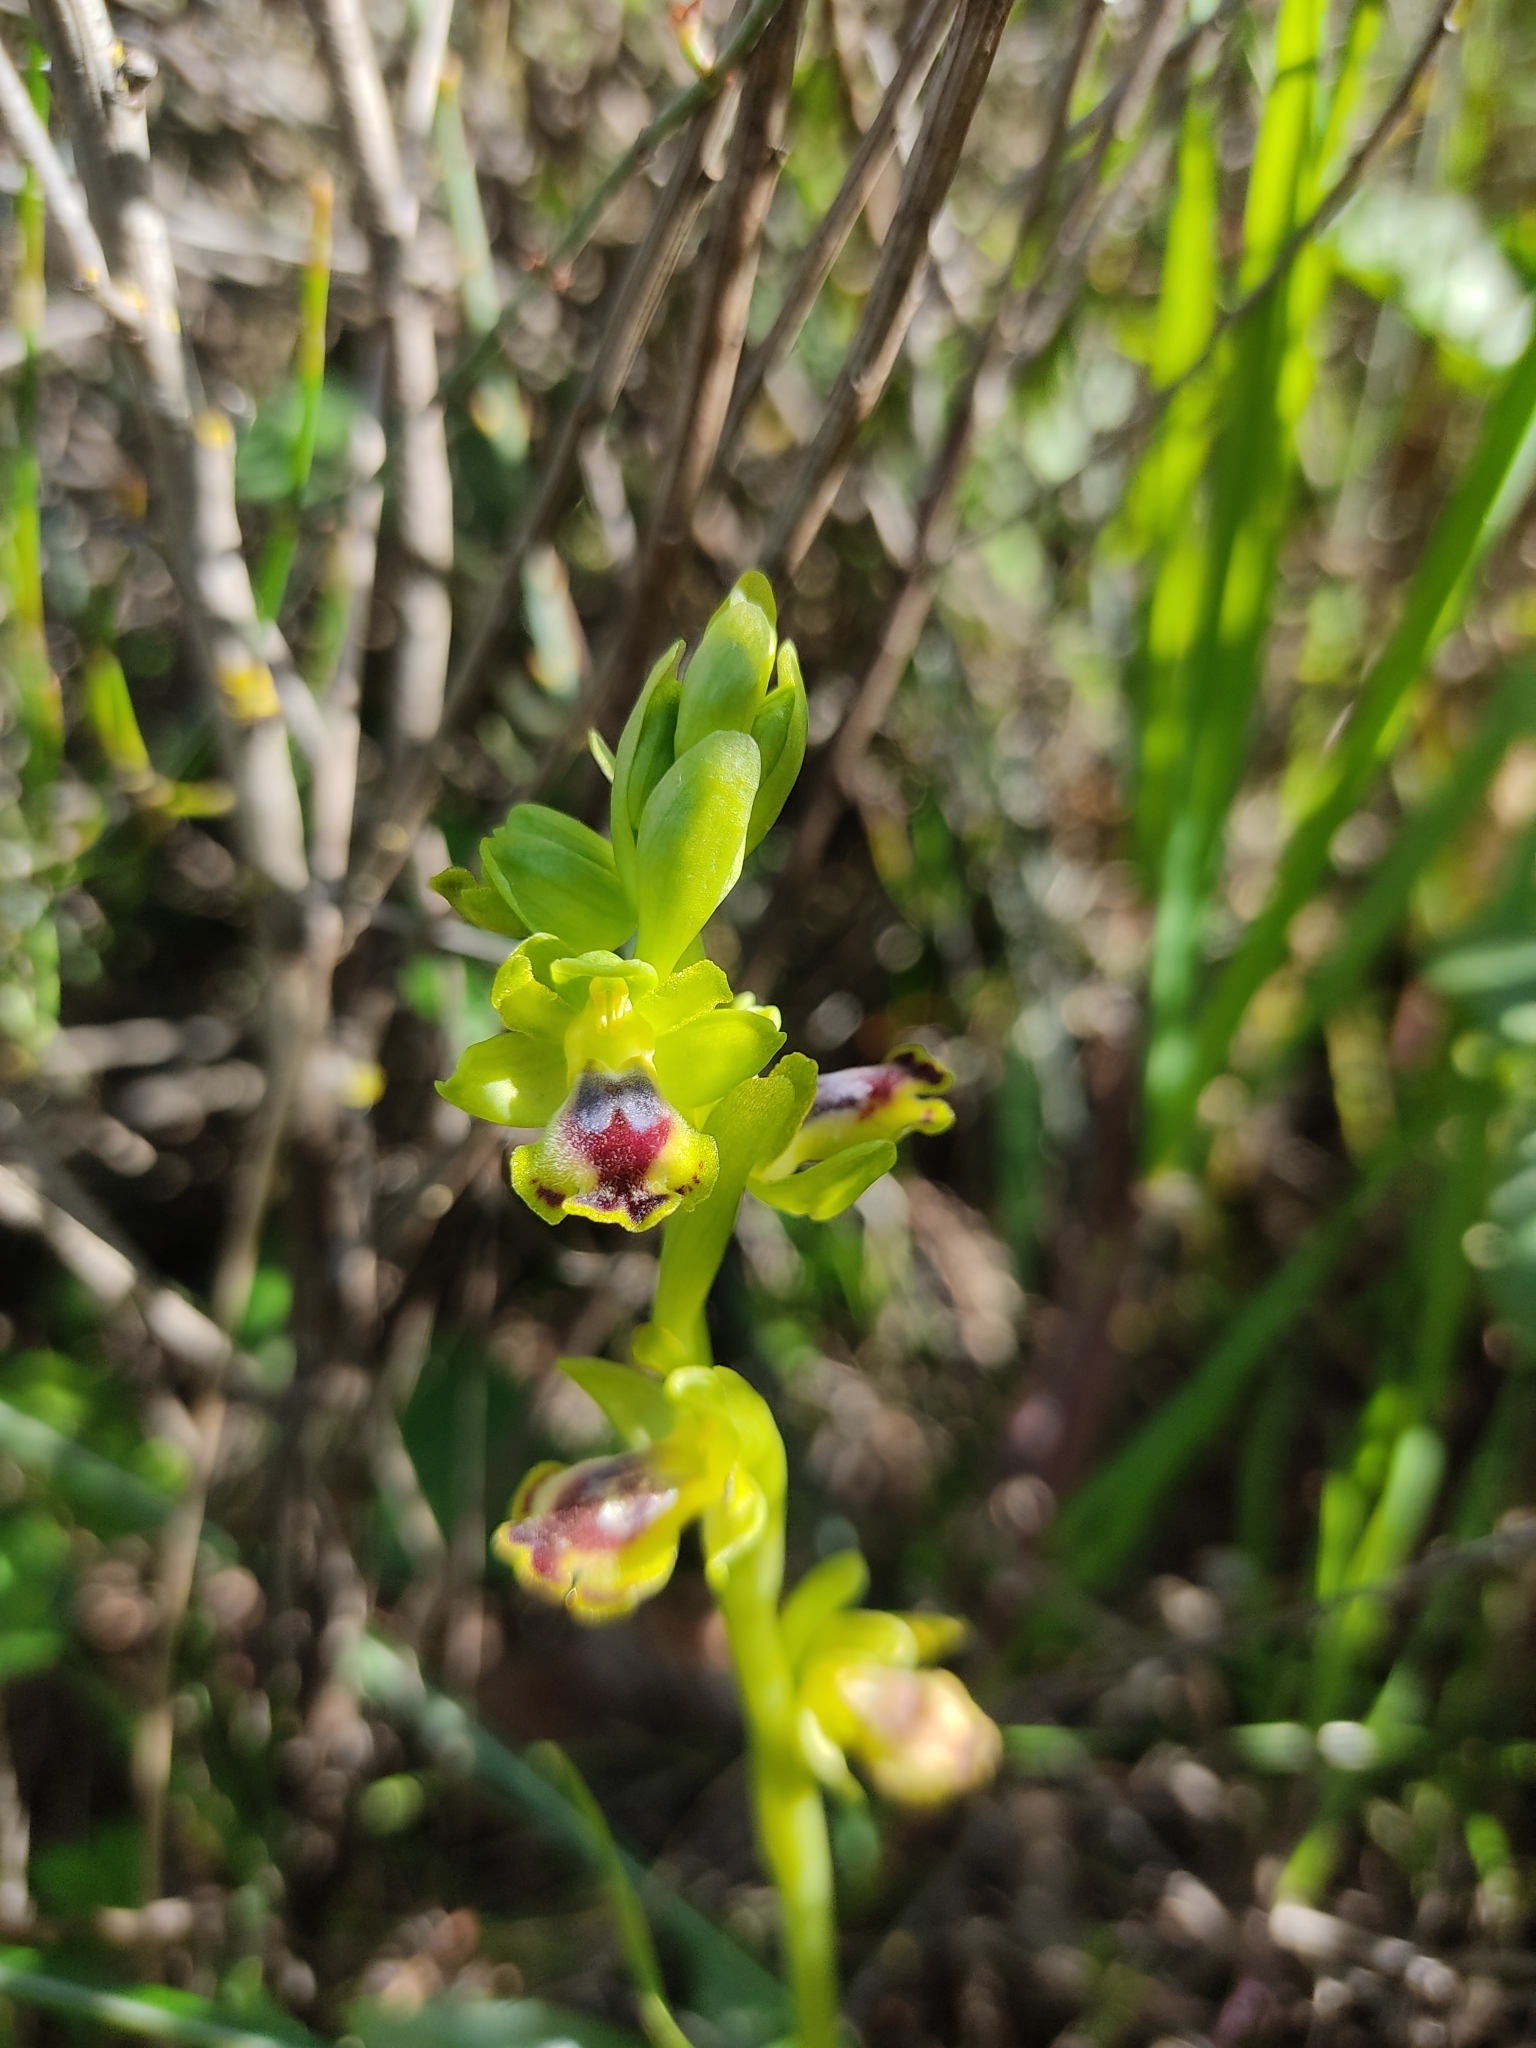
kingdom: Plantae
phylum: Tracheophyta
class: Liliopsida
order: Asparagales
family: Orchidaceae
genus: Ophrys
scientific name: Ophrys lutea
